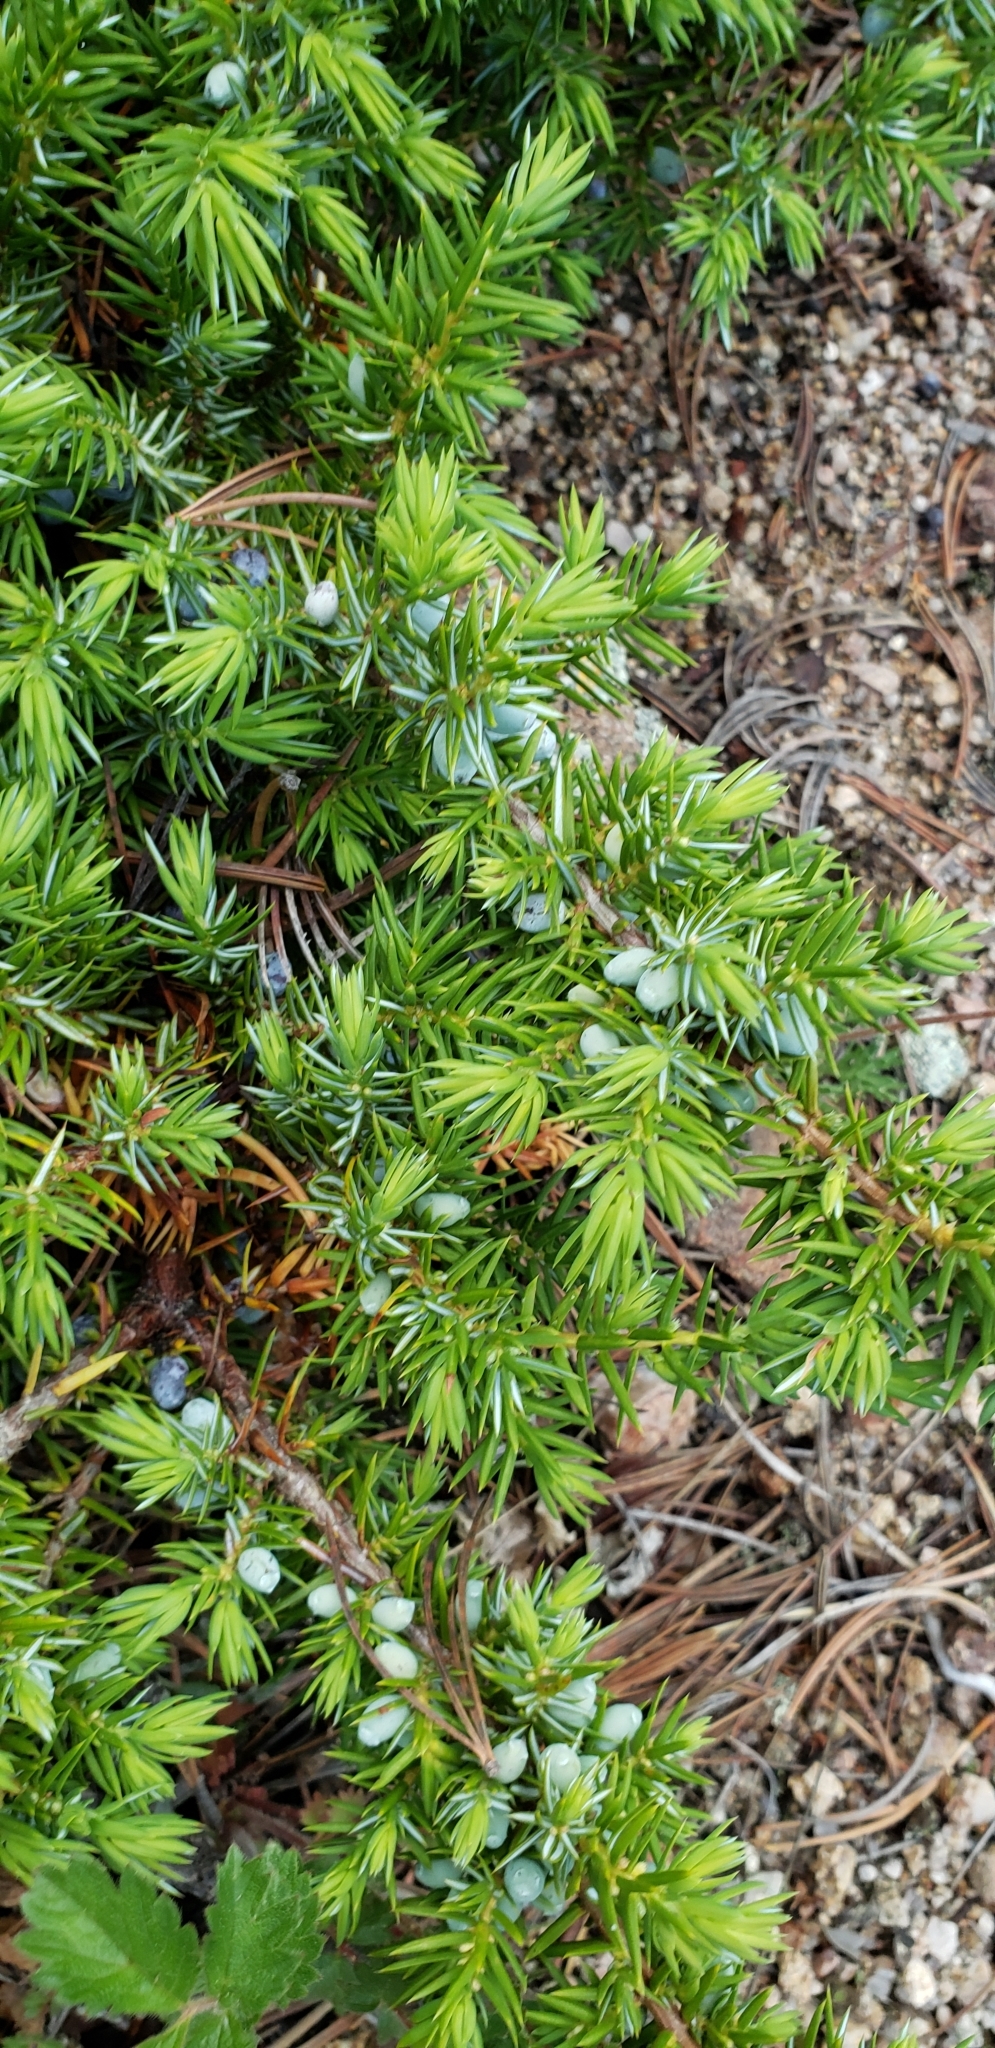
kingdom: Plantae
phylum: Tracheophyta
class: Pinopsida
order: Pinales
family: Cupressaceae
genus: Juniperus
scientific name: Juniperus communis
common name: Common juniper
